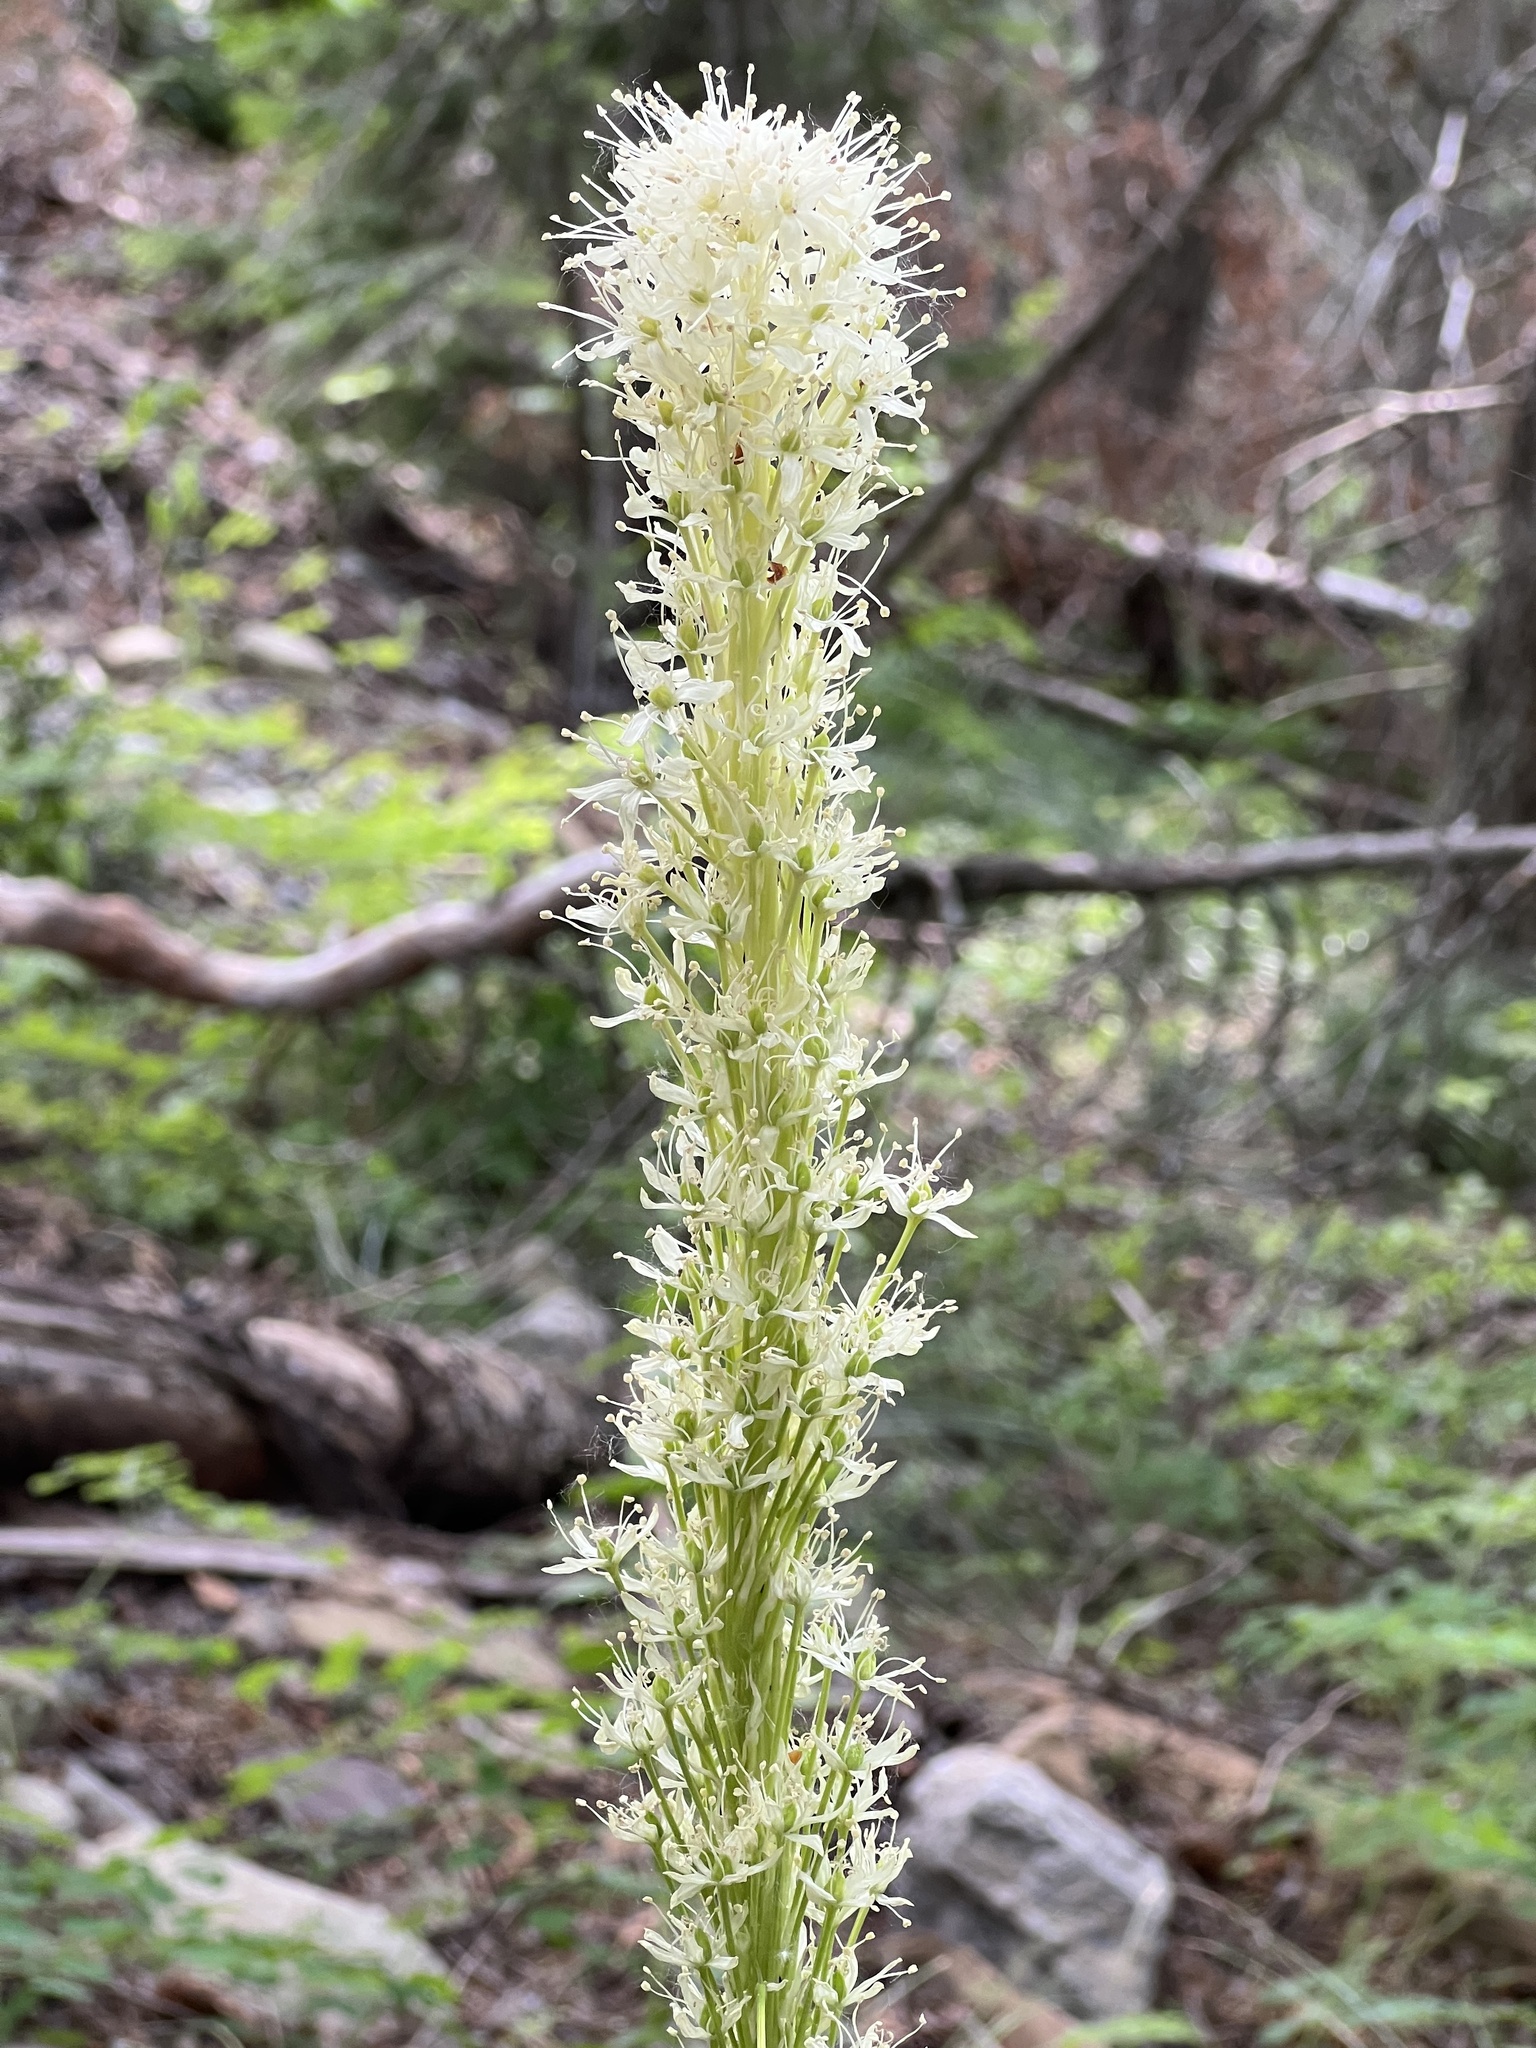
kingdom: Plantae
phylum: Tracheophyta
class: Liliopsida
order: Liliales
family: Melanthiaceae
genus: Xerophyllum
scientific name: Xerophyllum tenax
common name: Bear-grass
